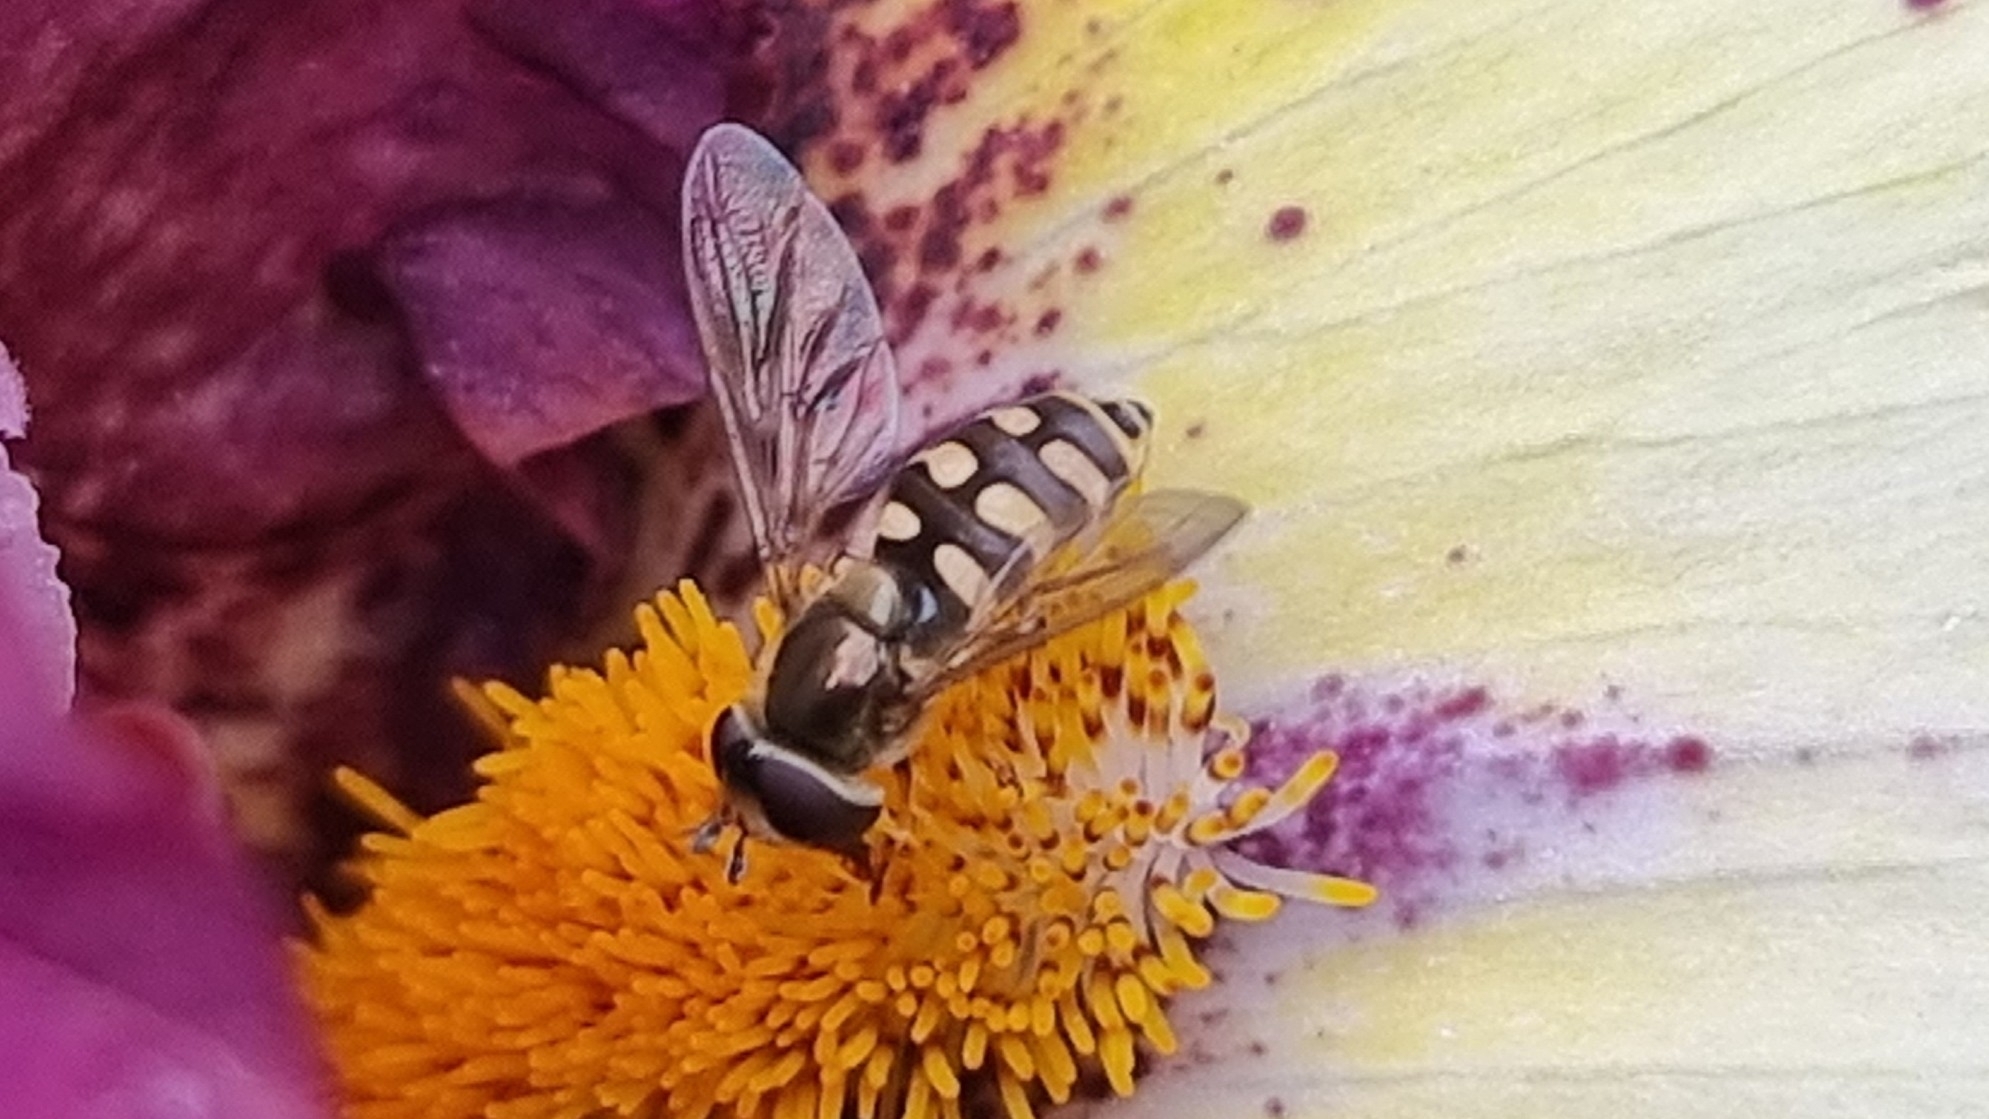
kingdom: Animalia
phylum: Arthropoda
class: Insecta
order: Diptera
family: Syrphidae
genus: Eupeodes
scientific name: Eupeodes corollae
